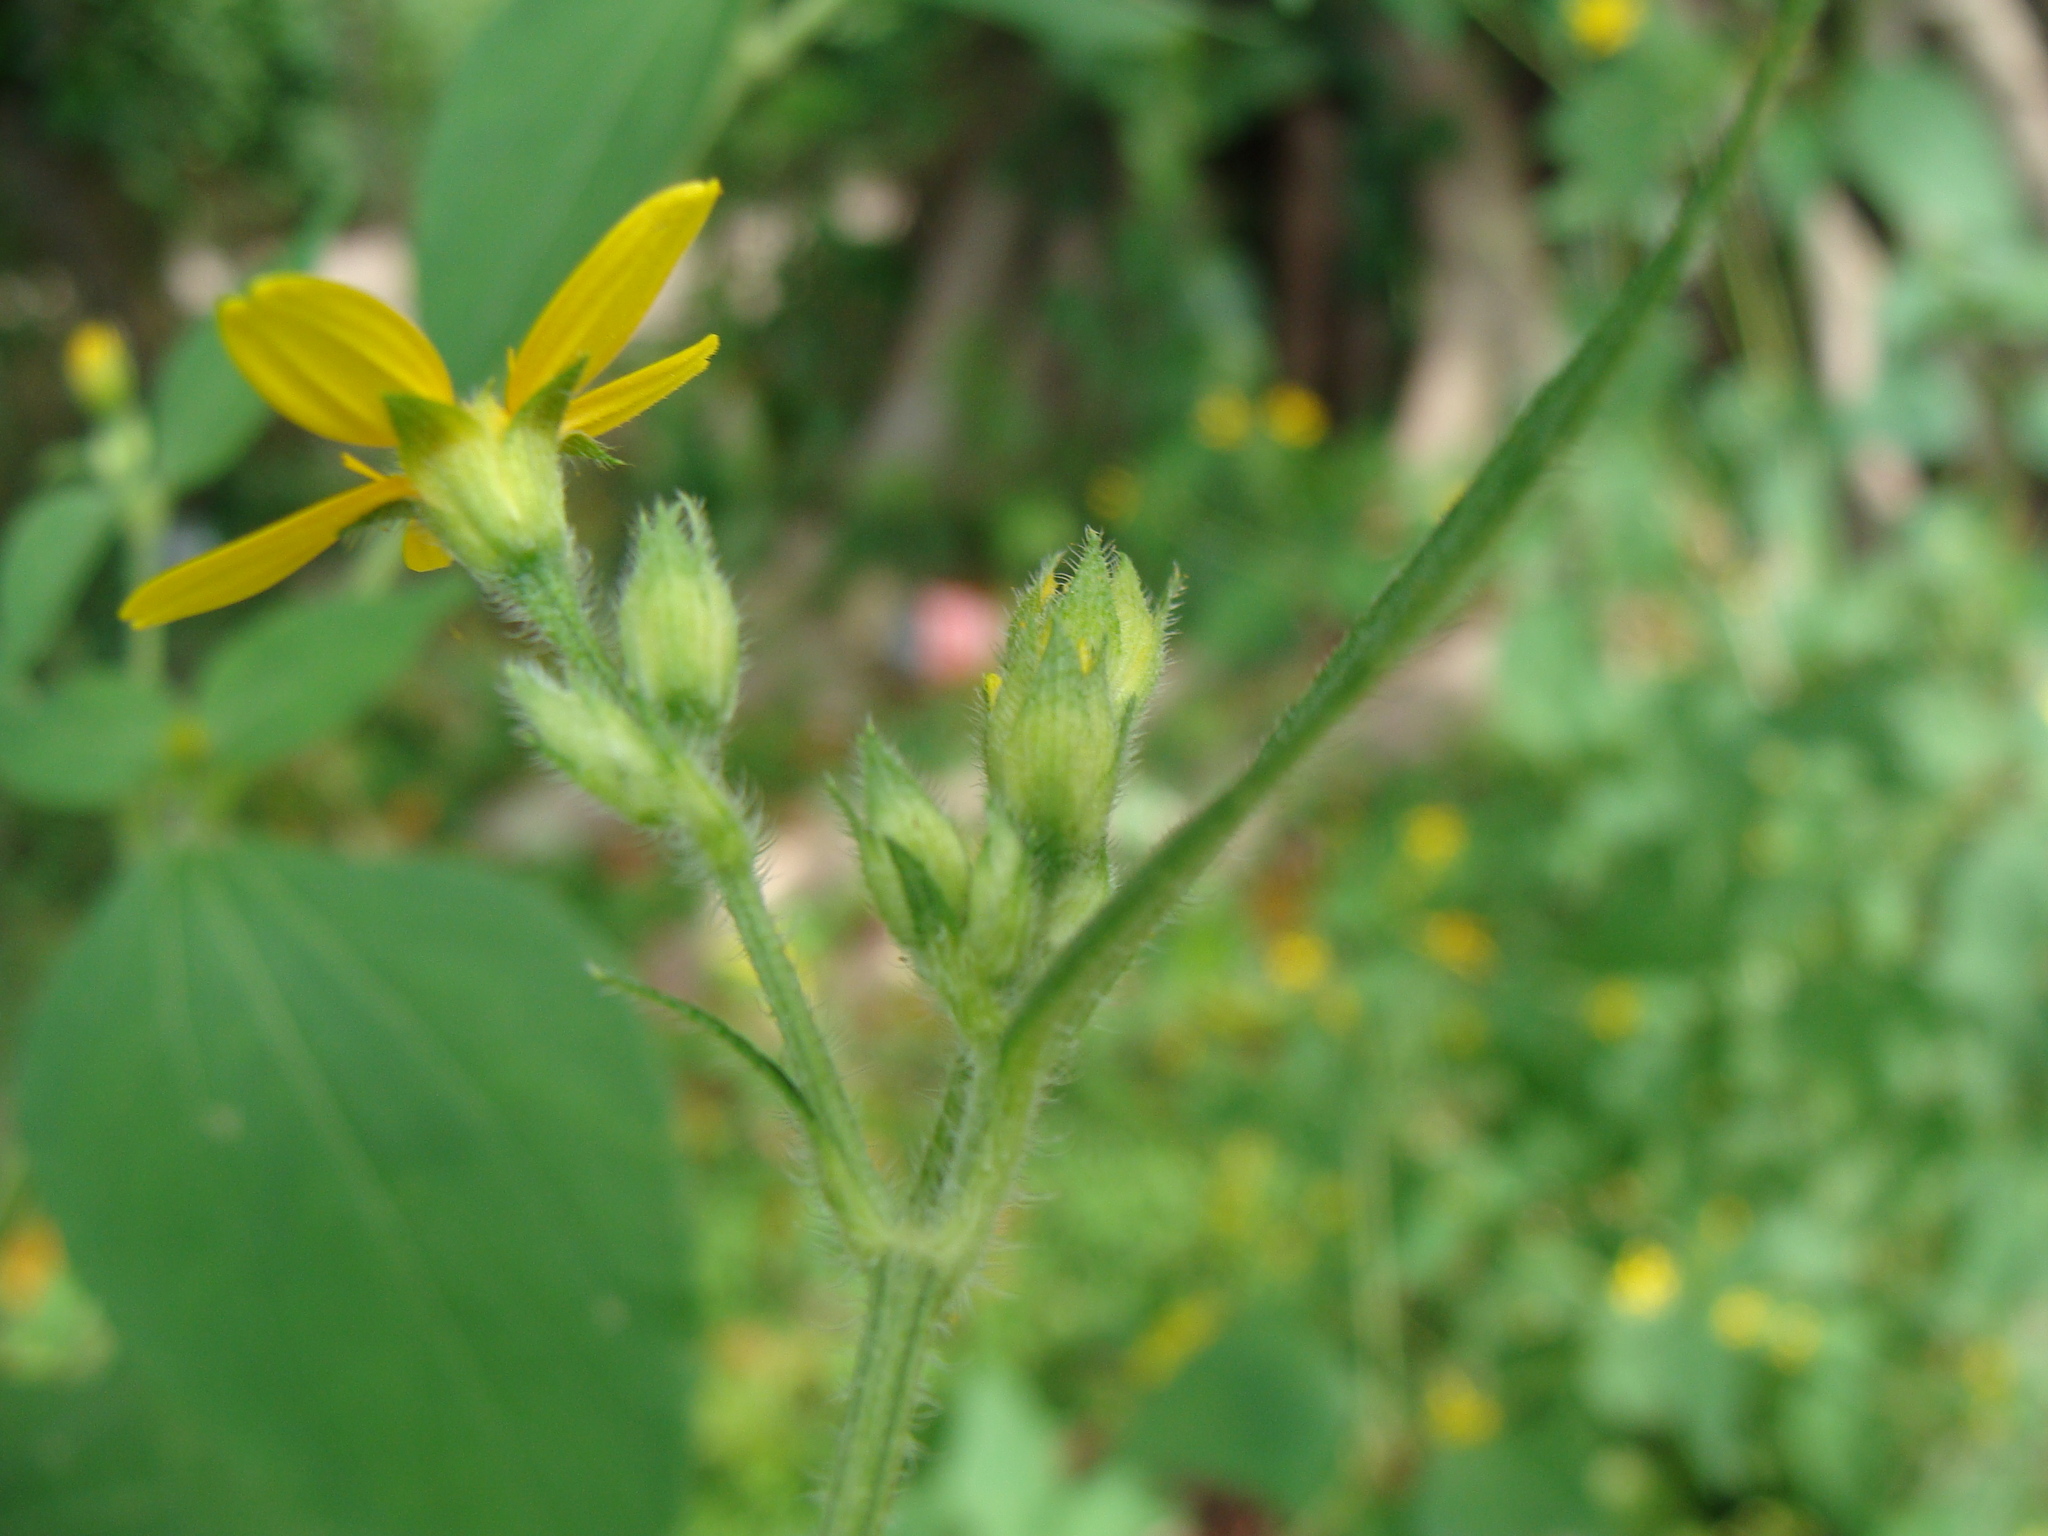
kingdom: Plantae
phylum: Tracheophyta
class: Magnoliopsida
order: Asterales
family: Asteraceae
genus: Baltimora
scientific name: Baltimora recta
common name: Beautyhead
